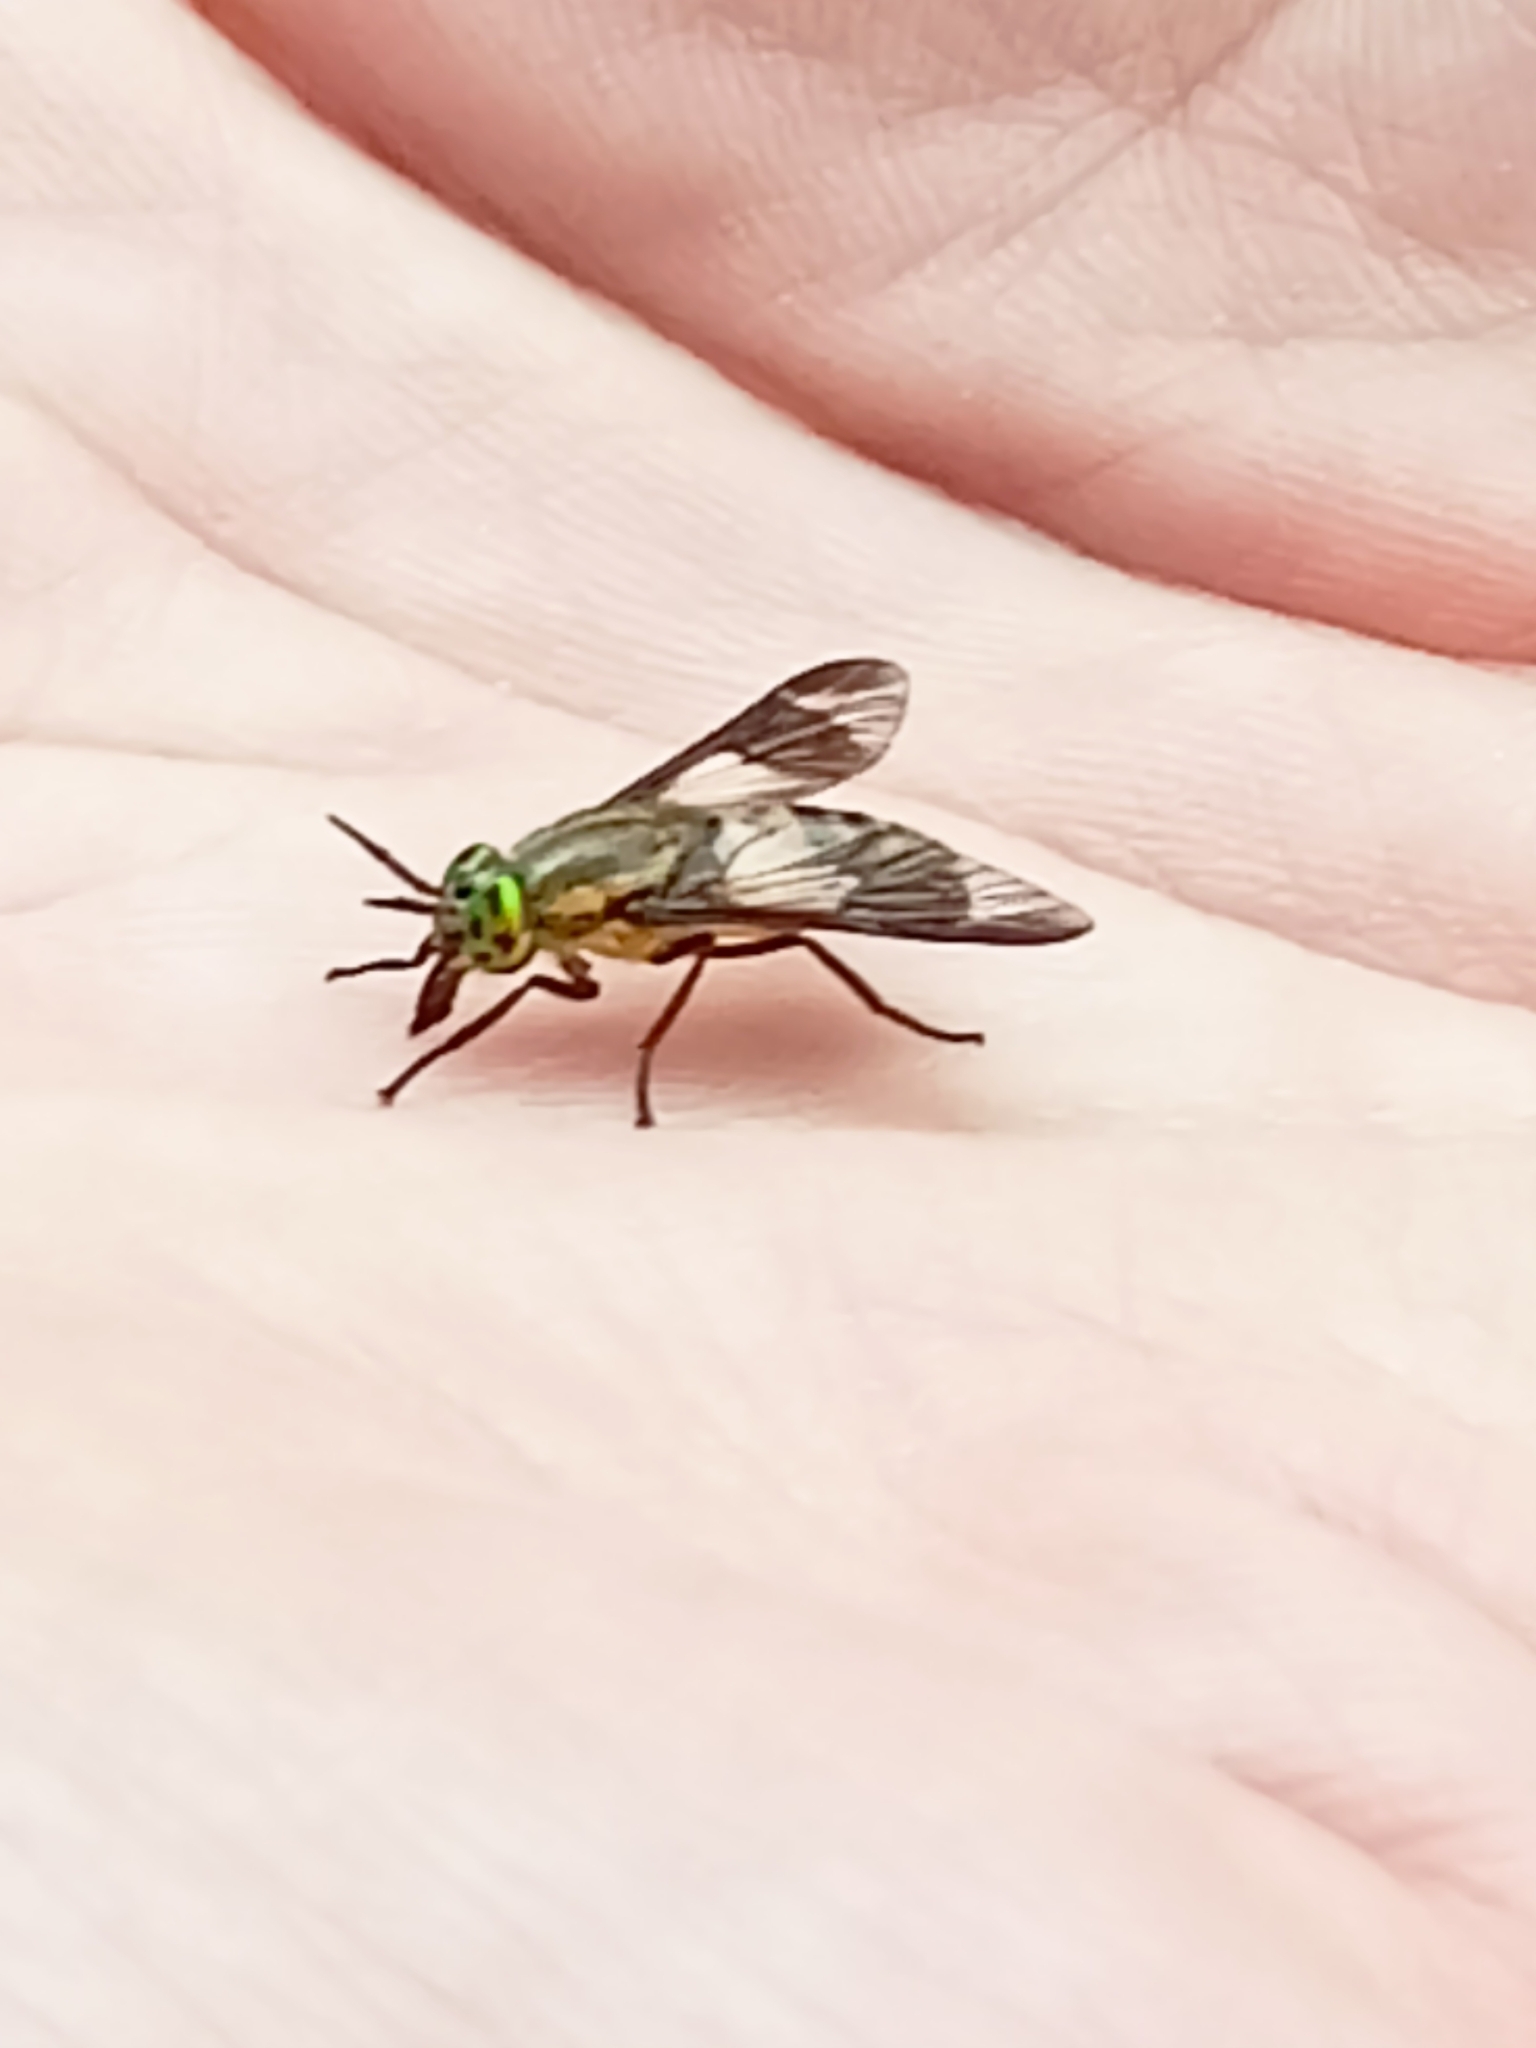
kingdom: Animalia
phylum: Arthropoda
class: Insecta
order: Diptera
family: Tabanidae
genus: Chrysops
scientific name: Chrysops viduatus
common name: Square-spot deerfly
